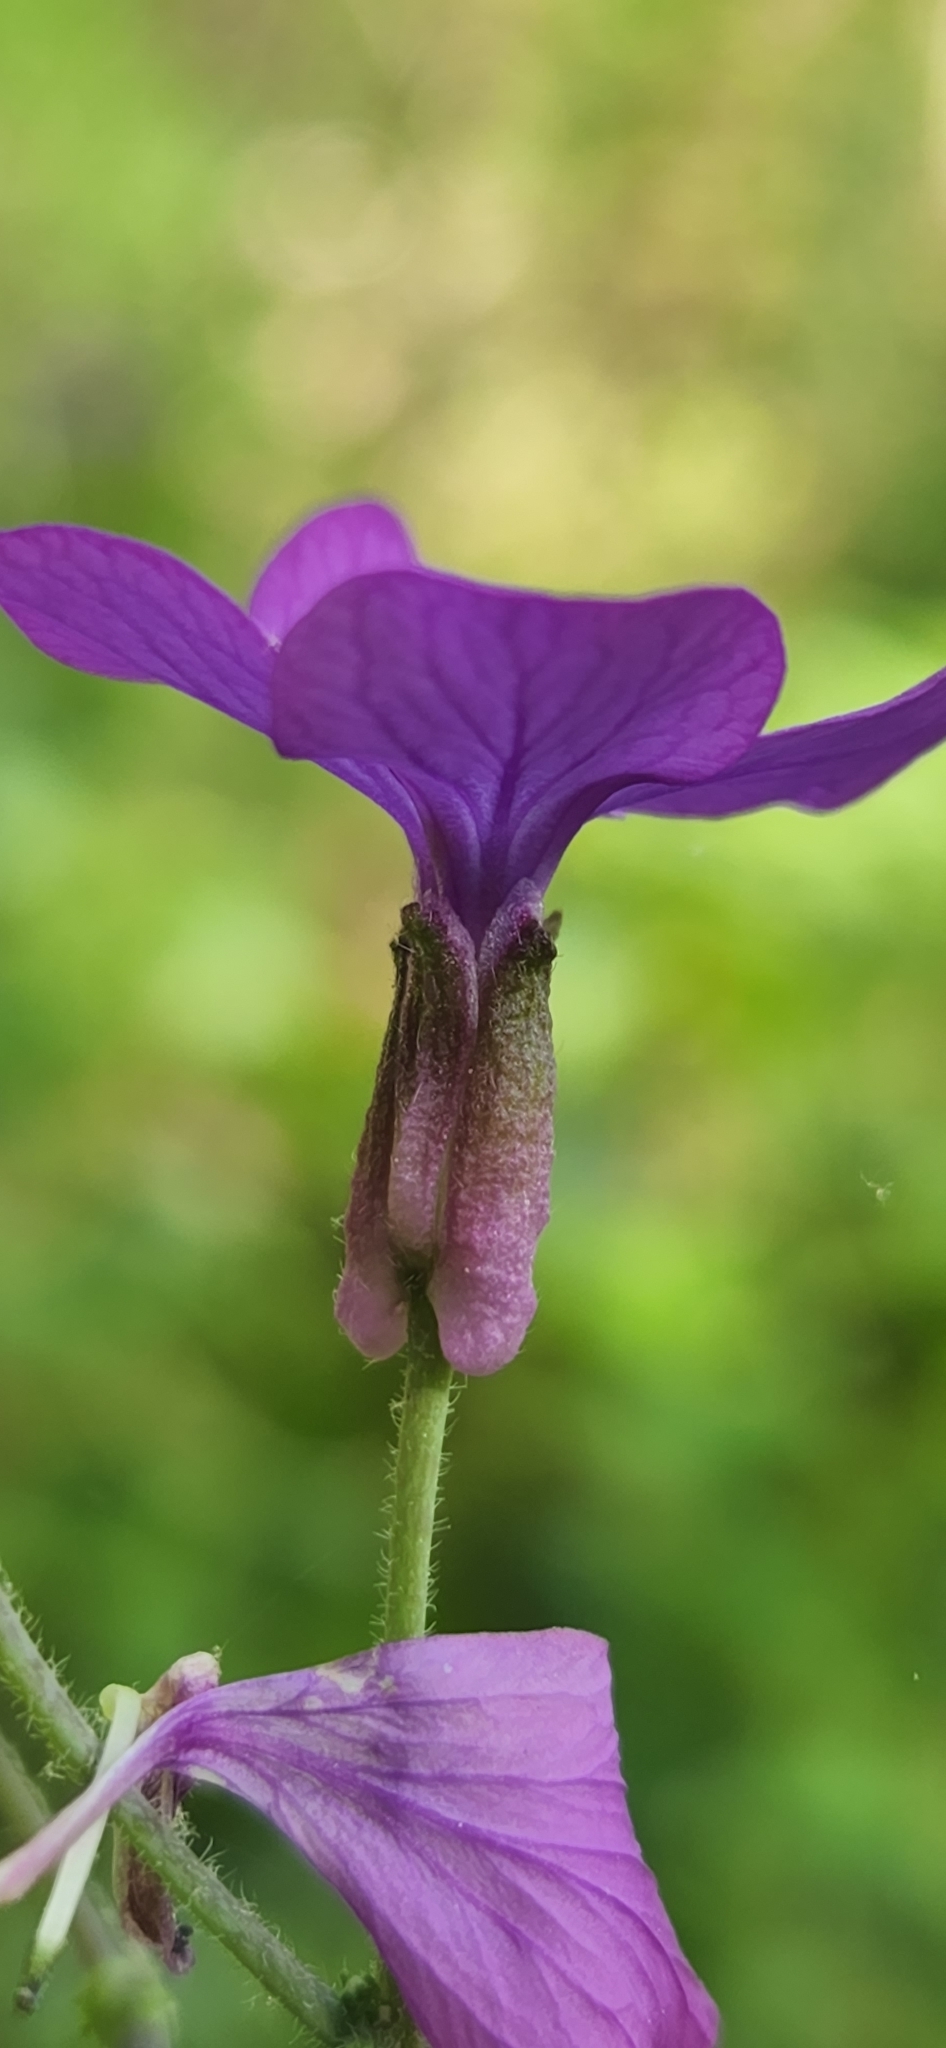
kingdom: Plantae
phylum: Tracheophyta
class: Magnoliopsida
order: Brassicales
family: Brassicaceae
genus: Lunaria
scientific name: Lunaria annua
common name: Honesty
